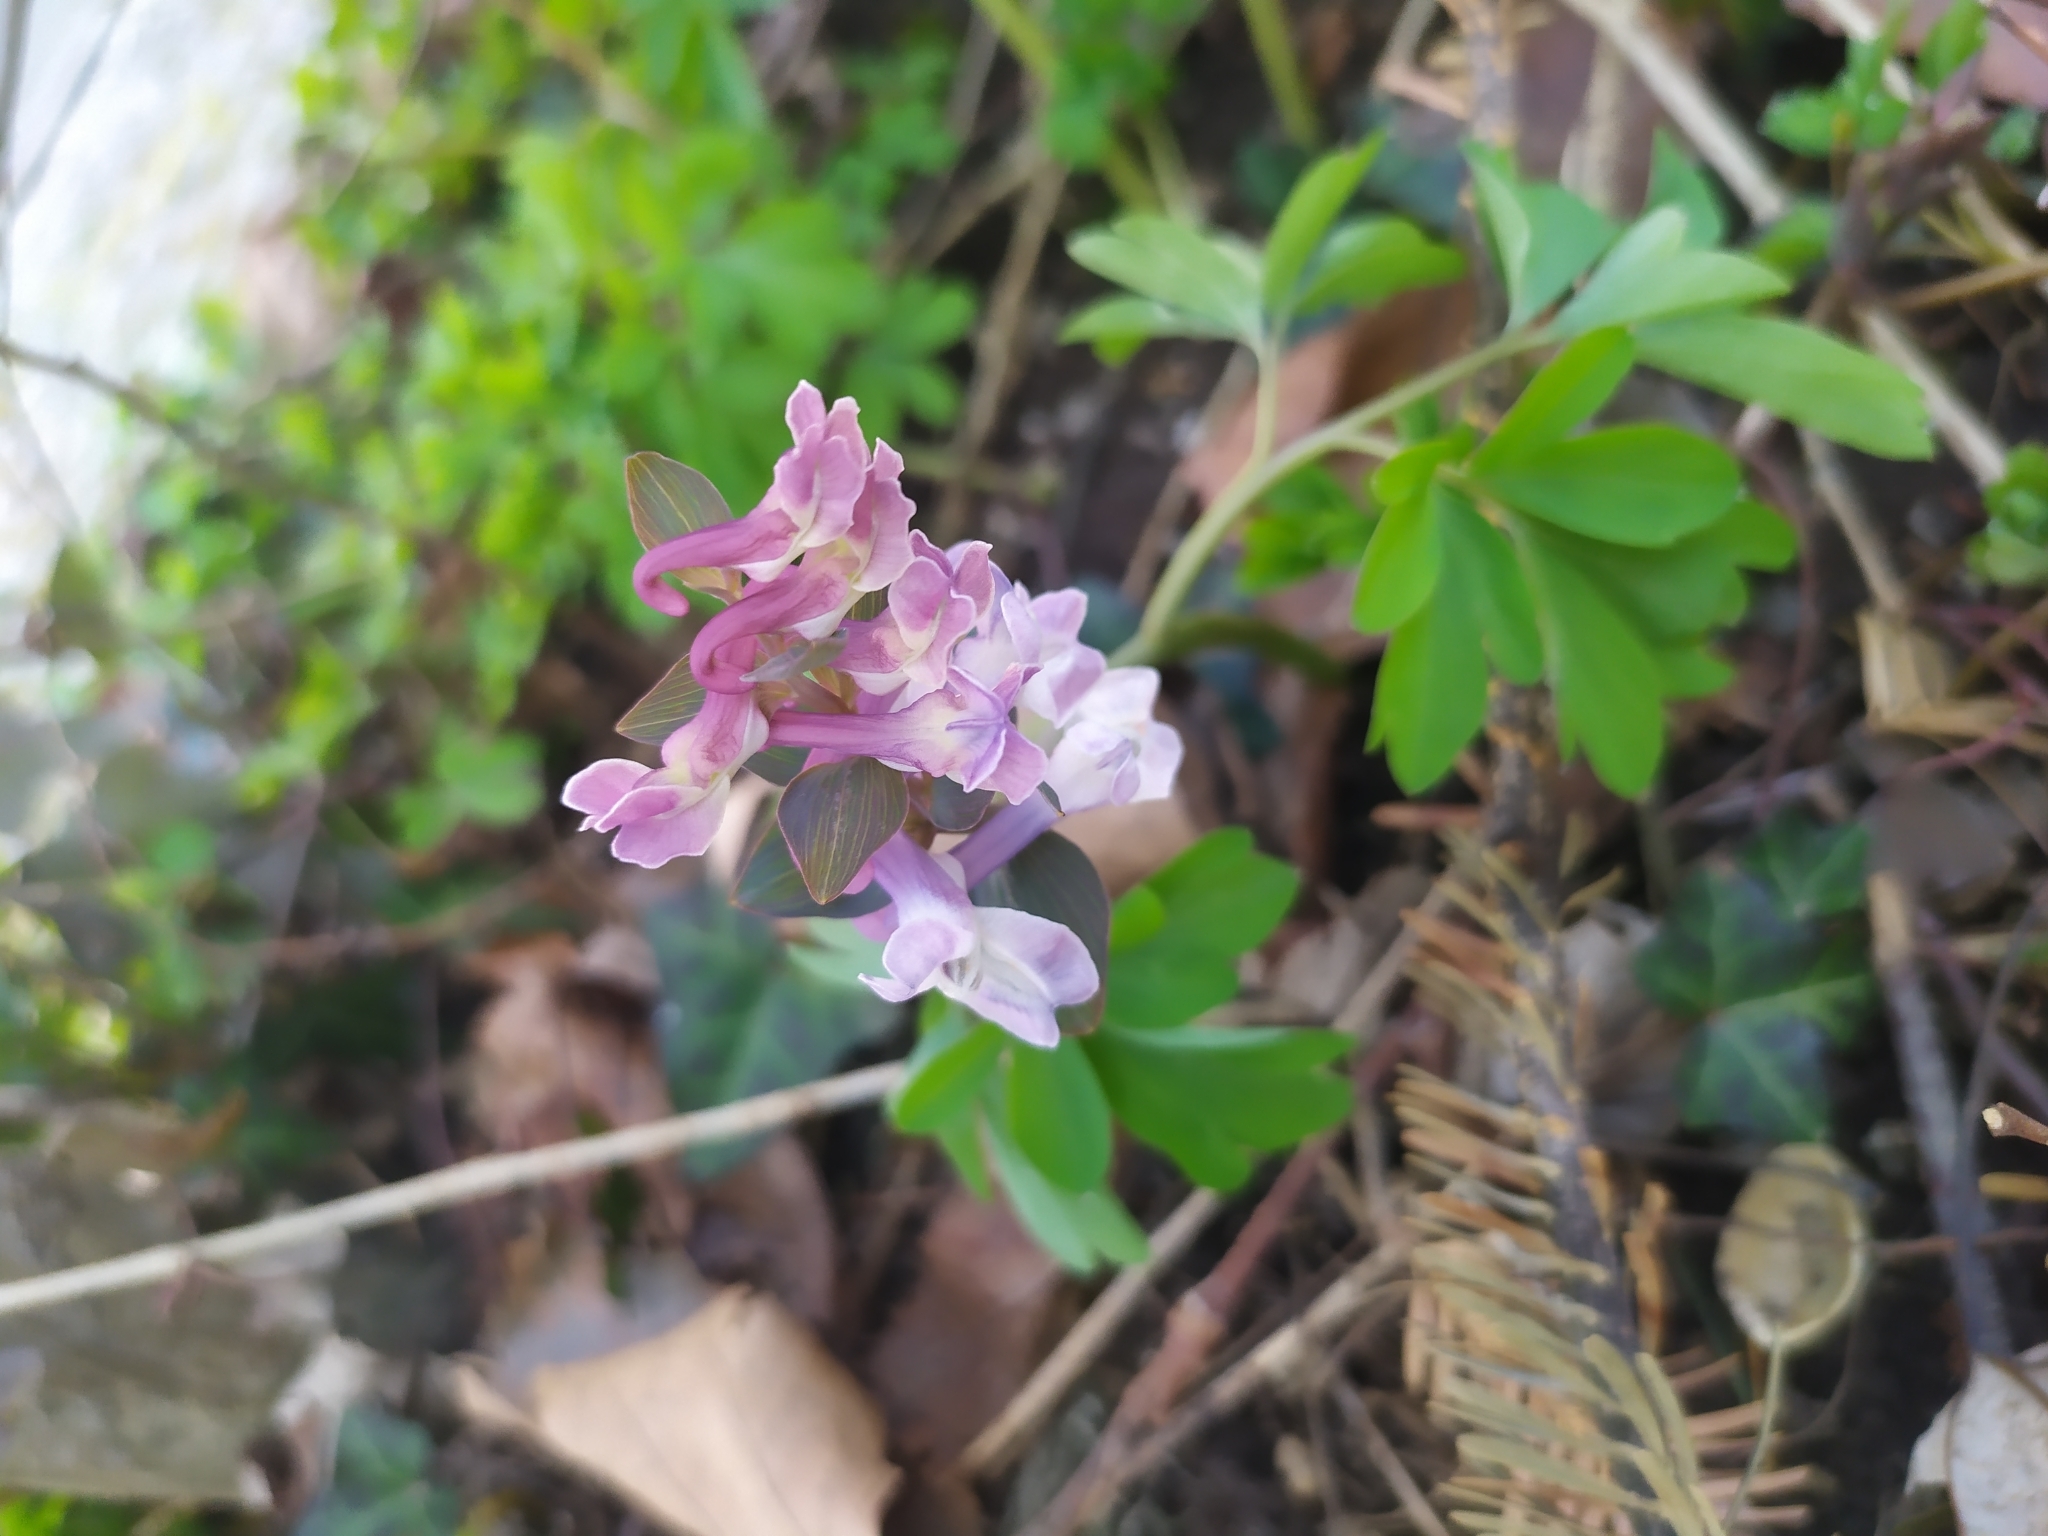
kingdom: Plantae
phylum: Tracheophyta
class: Magnoliopsida
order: Ranunculales
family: Papaveraceae
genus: Corydalis
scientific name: Corydalis cava
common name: Hollowroot
